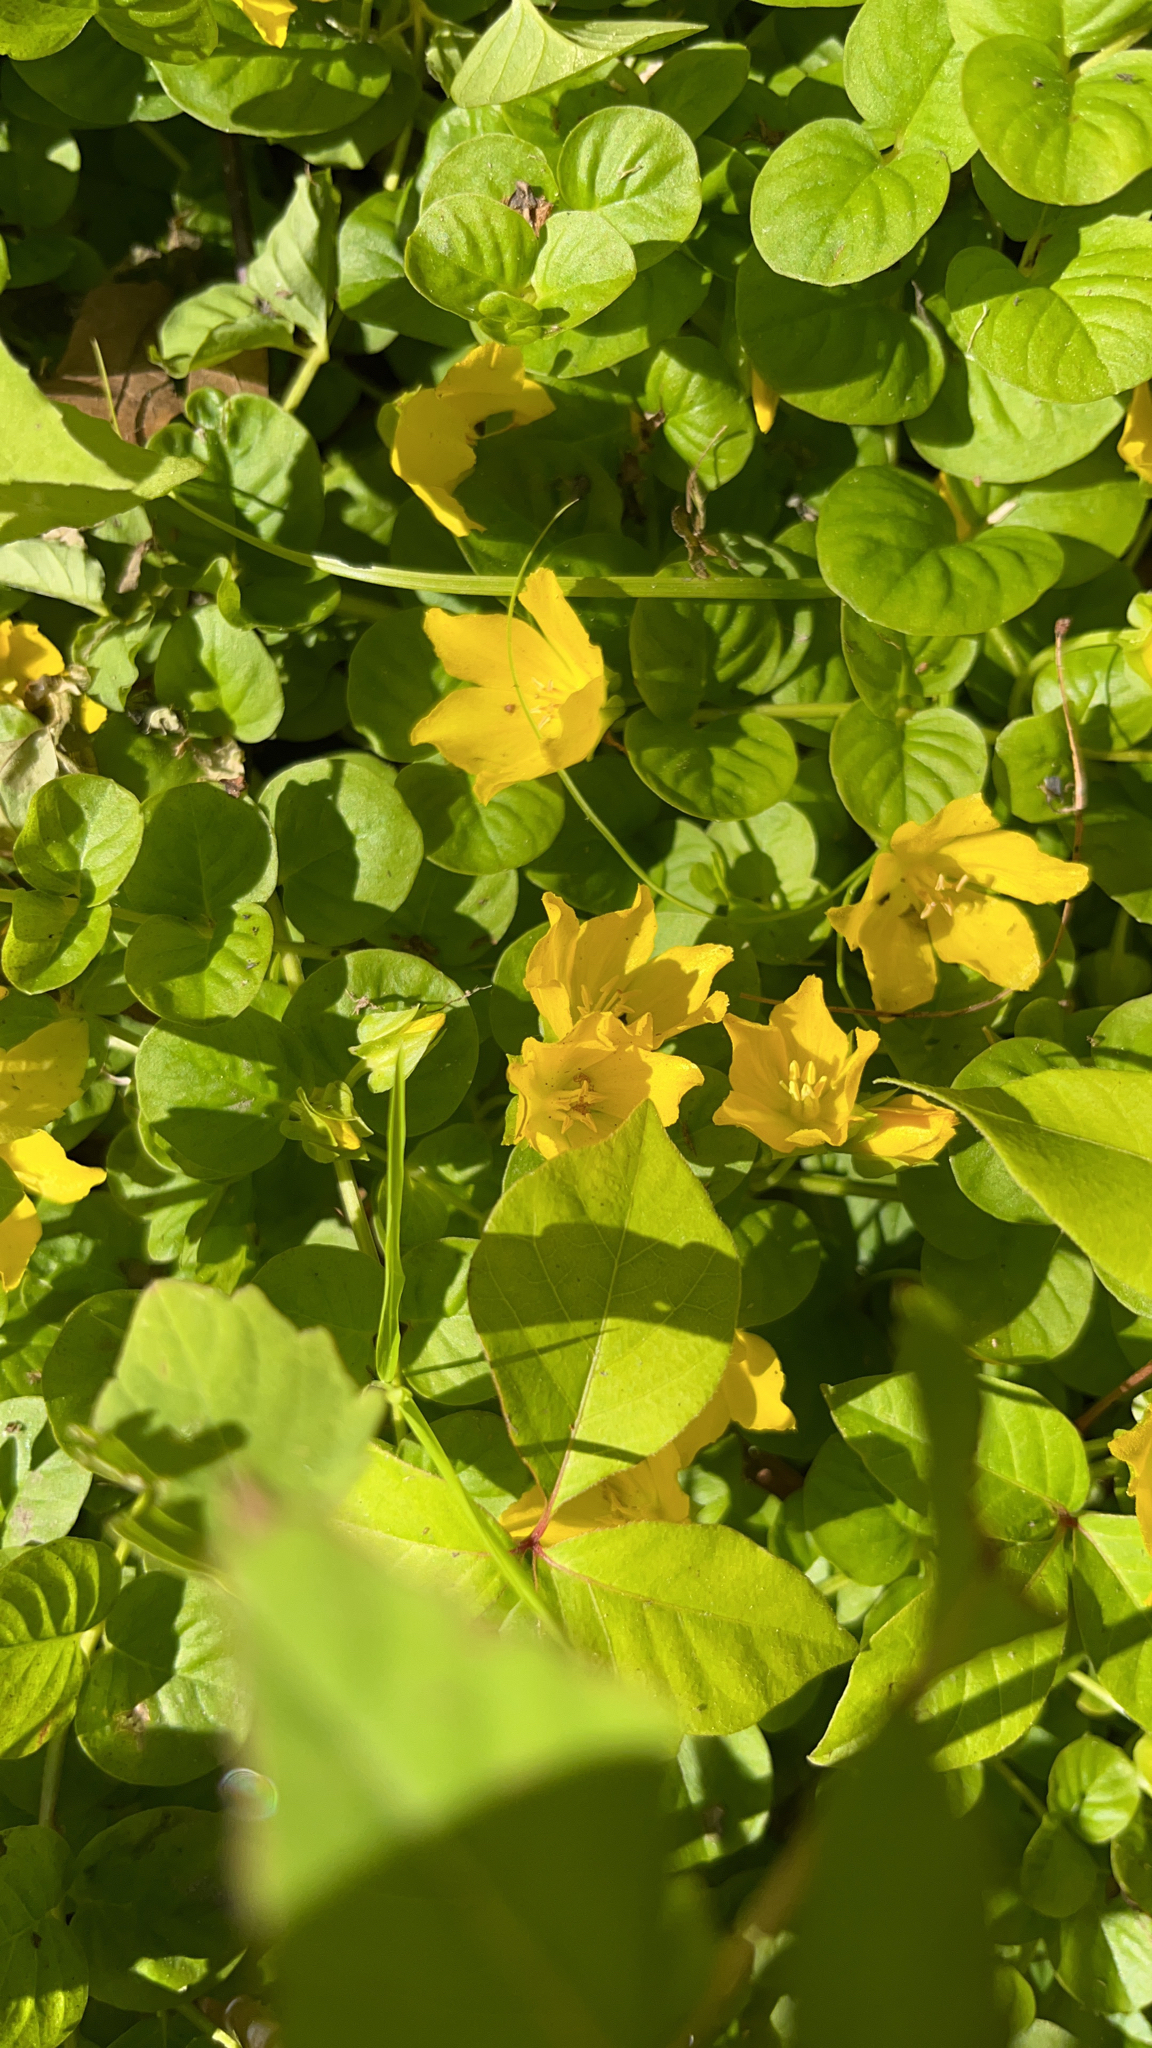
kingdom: Plantae
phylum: Tracheophyta
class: Magnoliopsida
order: Ericales
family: Primulaceae
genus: Lysimachia
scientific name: Lysimachia nummularia
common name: Moneywort
